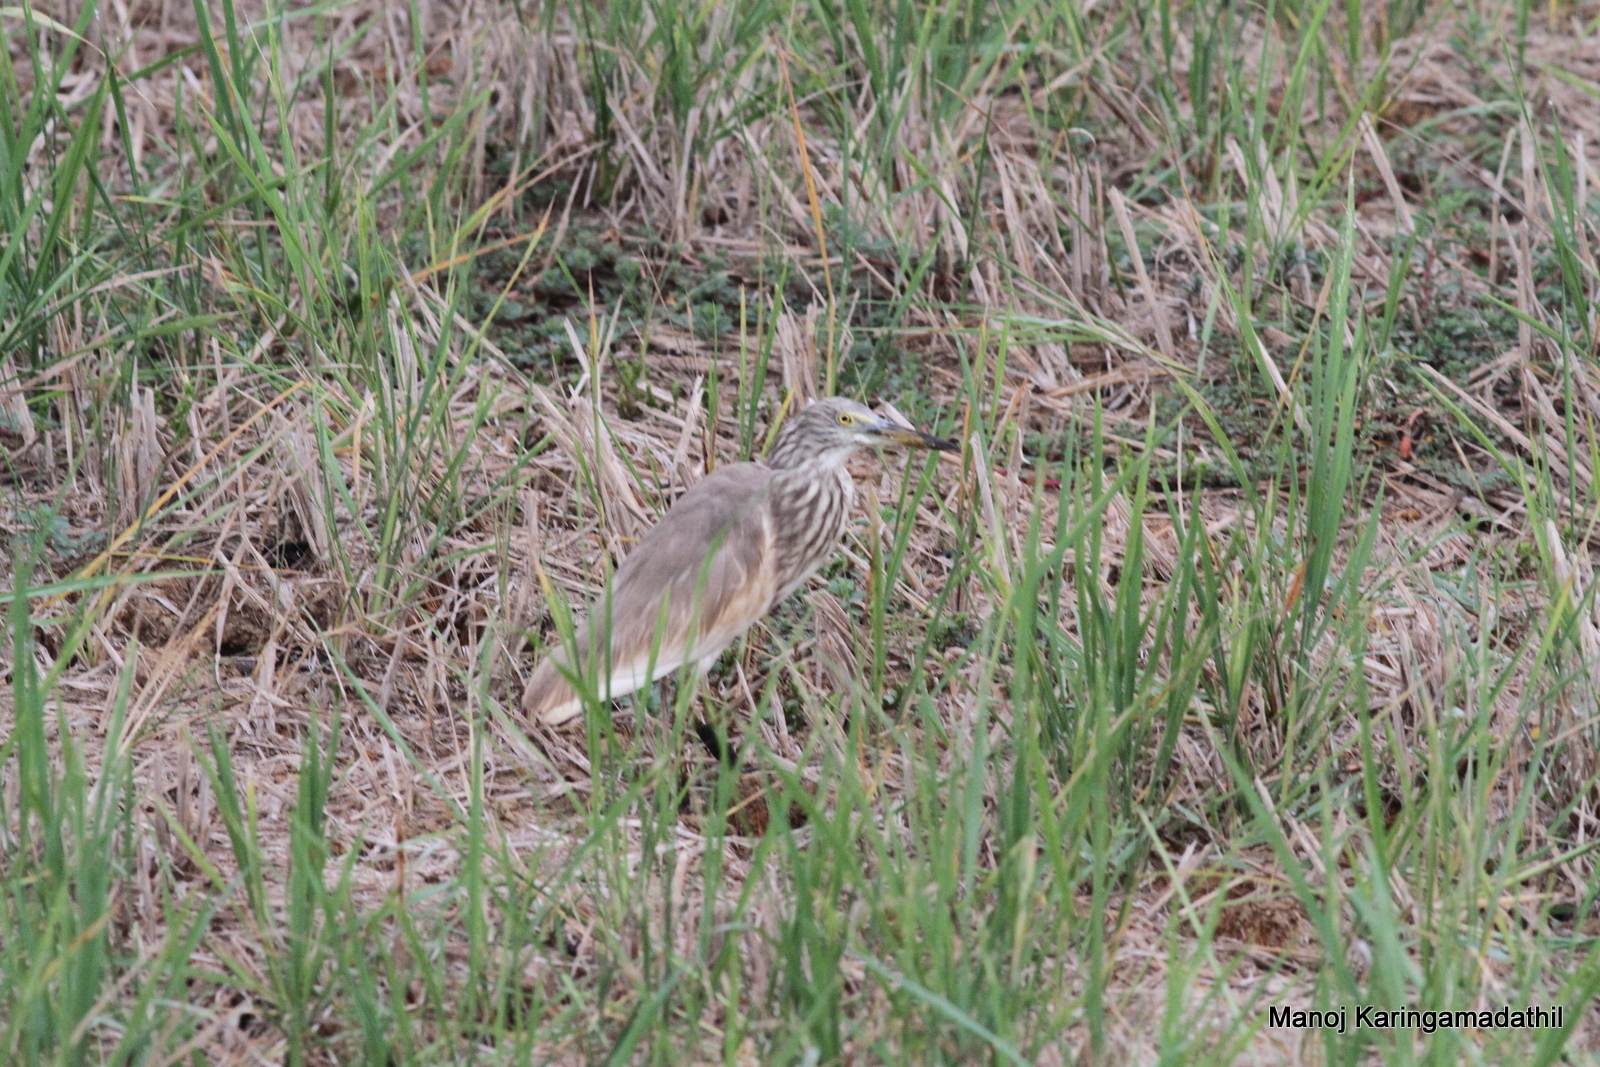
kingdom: Animalia
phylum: Chordata
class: Aves
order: Pelecaniformes
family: Ardeidae
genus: Ardeola
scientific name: Ardeola grayii
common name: Indian pond heron
